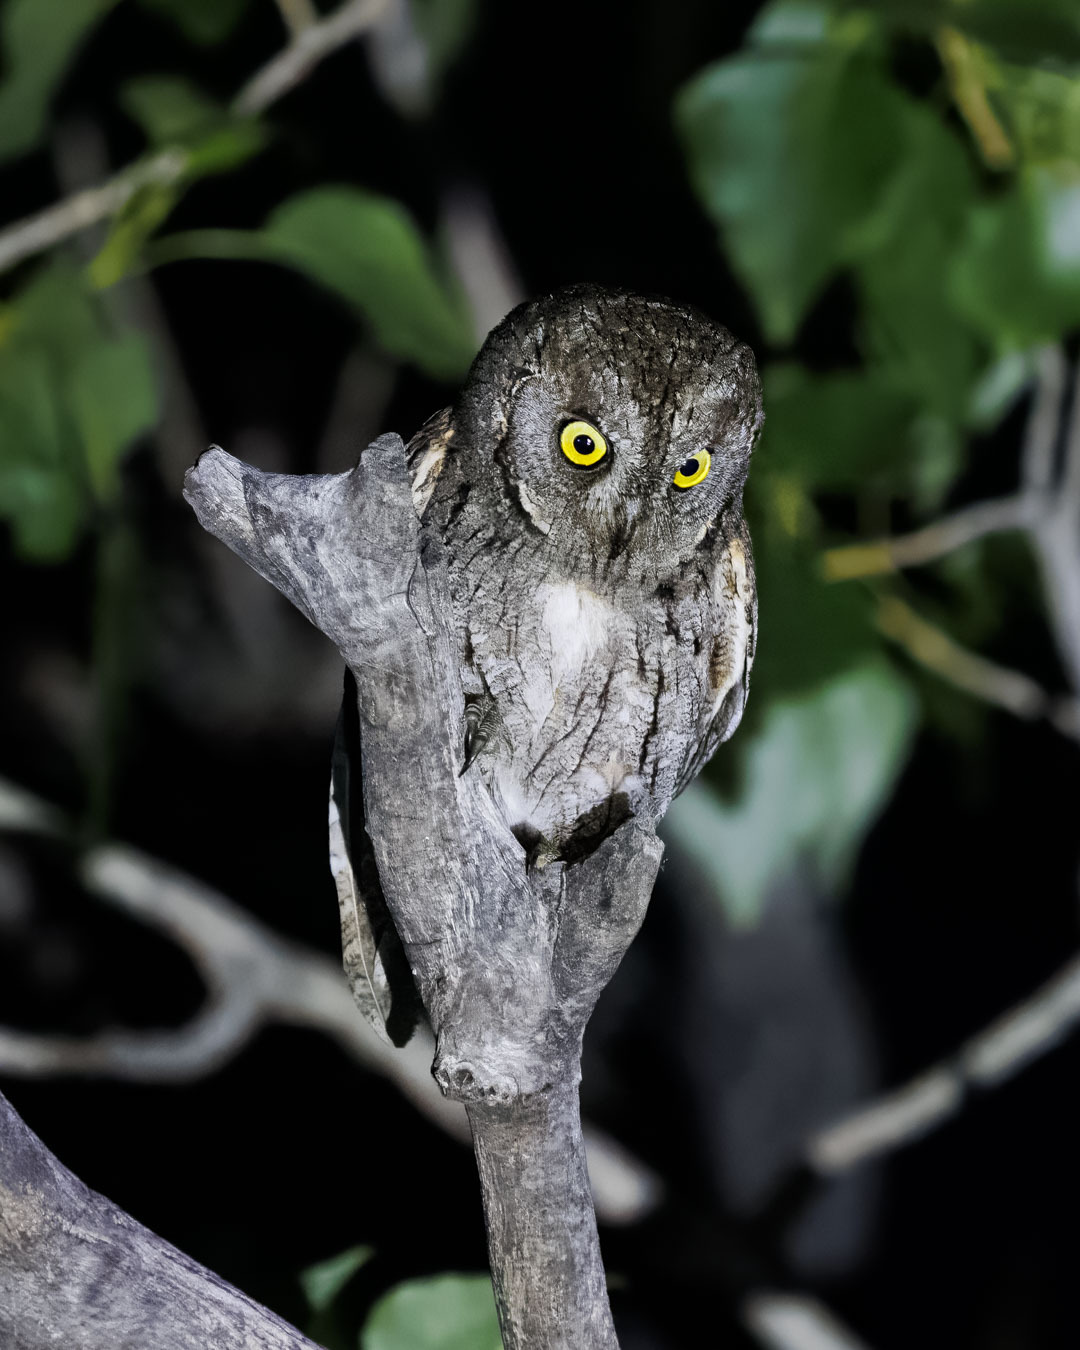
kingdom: Animalia
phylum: Chordata
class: Aves
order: Strigiformes
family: Strigidae
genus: Otus
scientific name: Otus scops
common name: Eurasian scops owl
